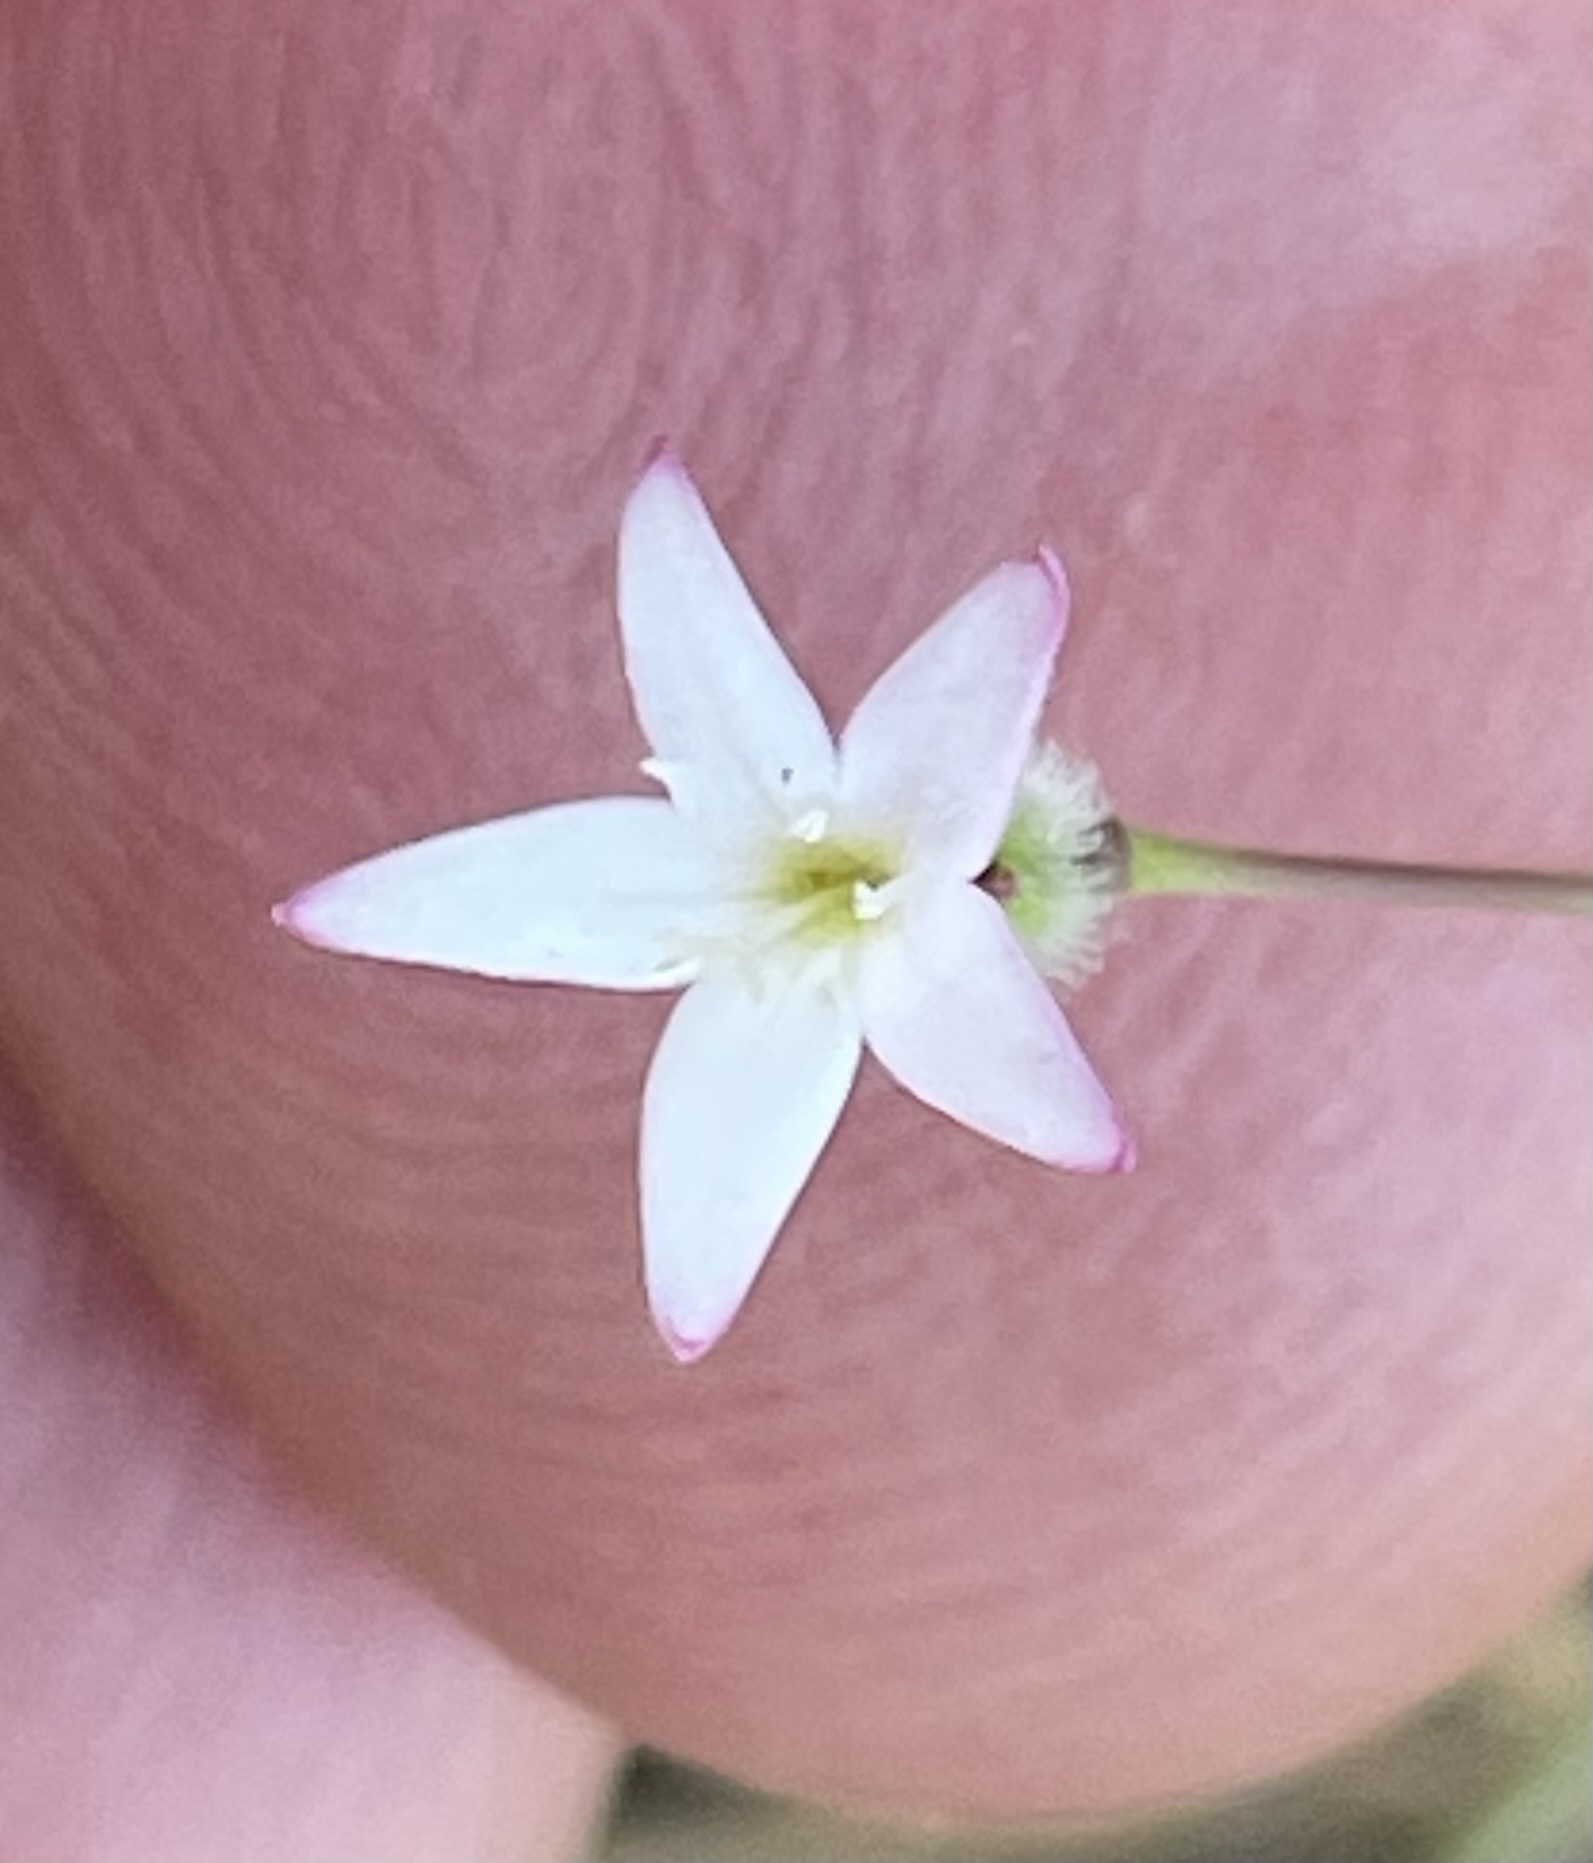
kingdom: Plantae
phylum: Tracheophyta
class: Magnoliopsida
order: Gentianales
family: Rubiaceae
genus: Kelloggia
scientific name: Kelloggia galioides
